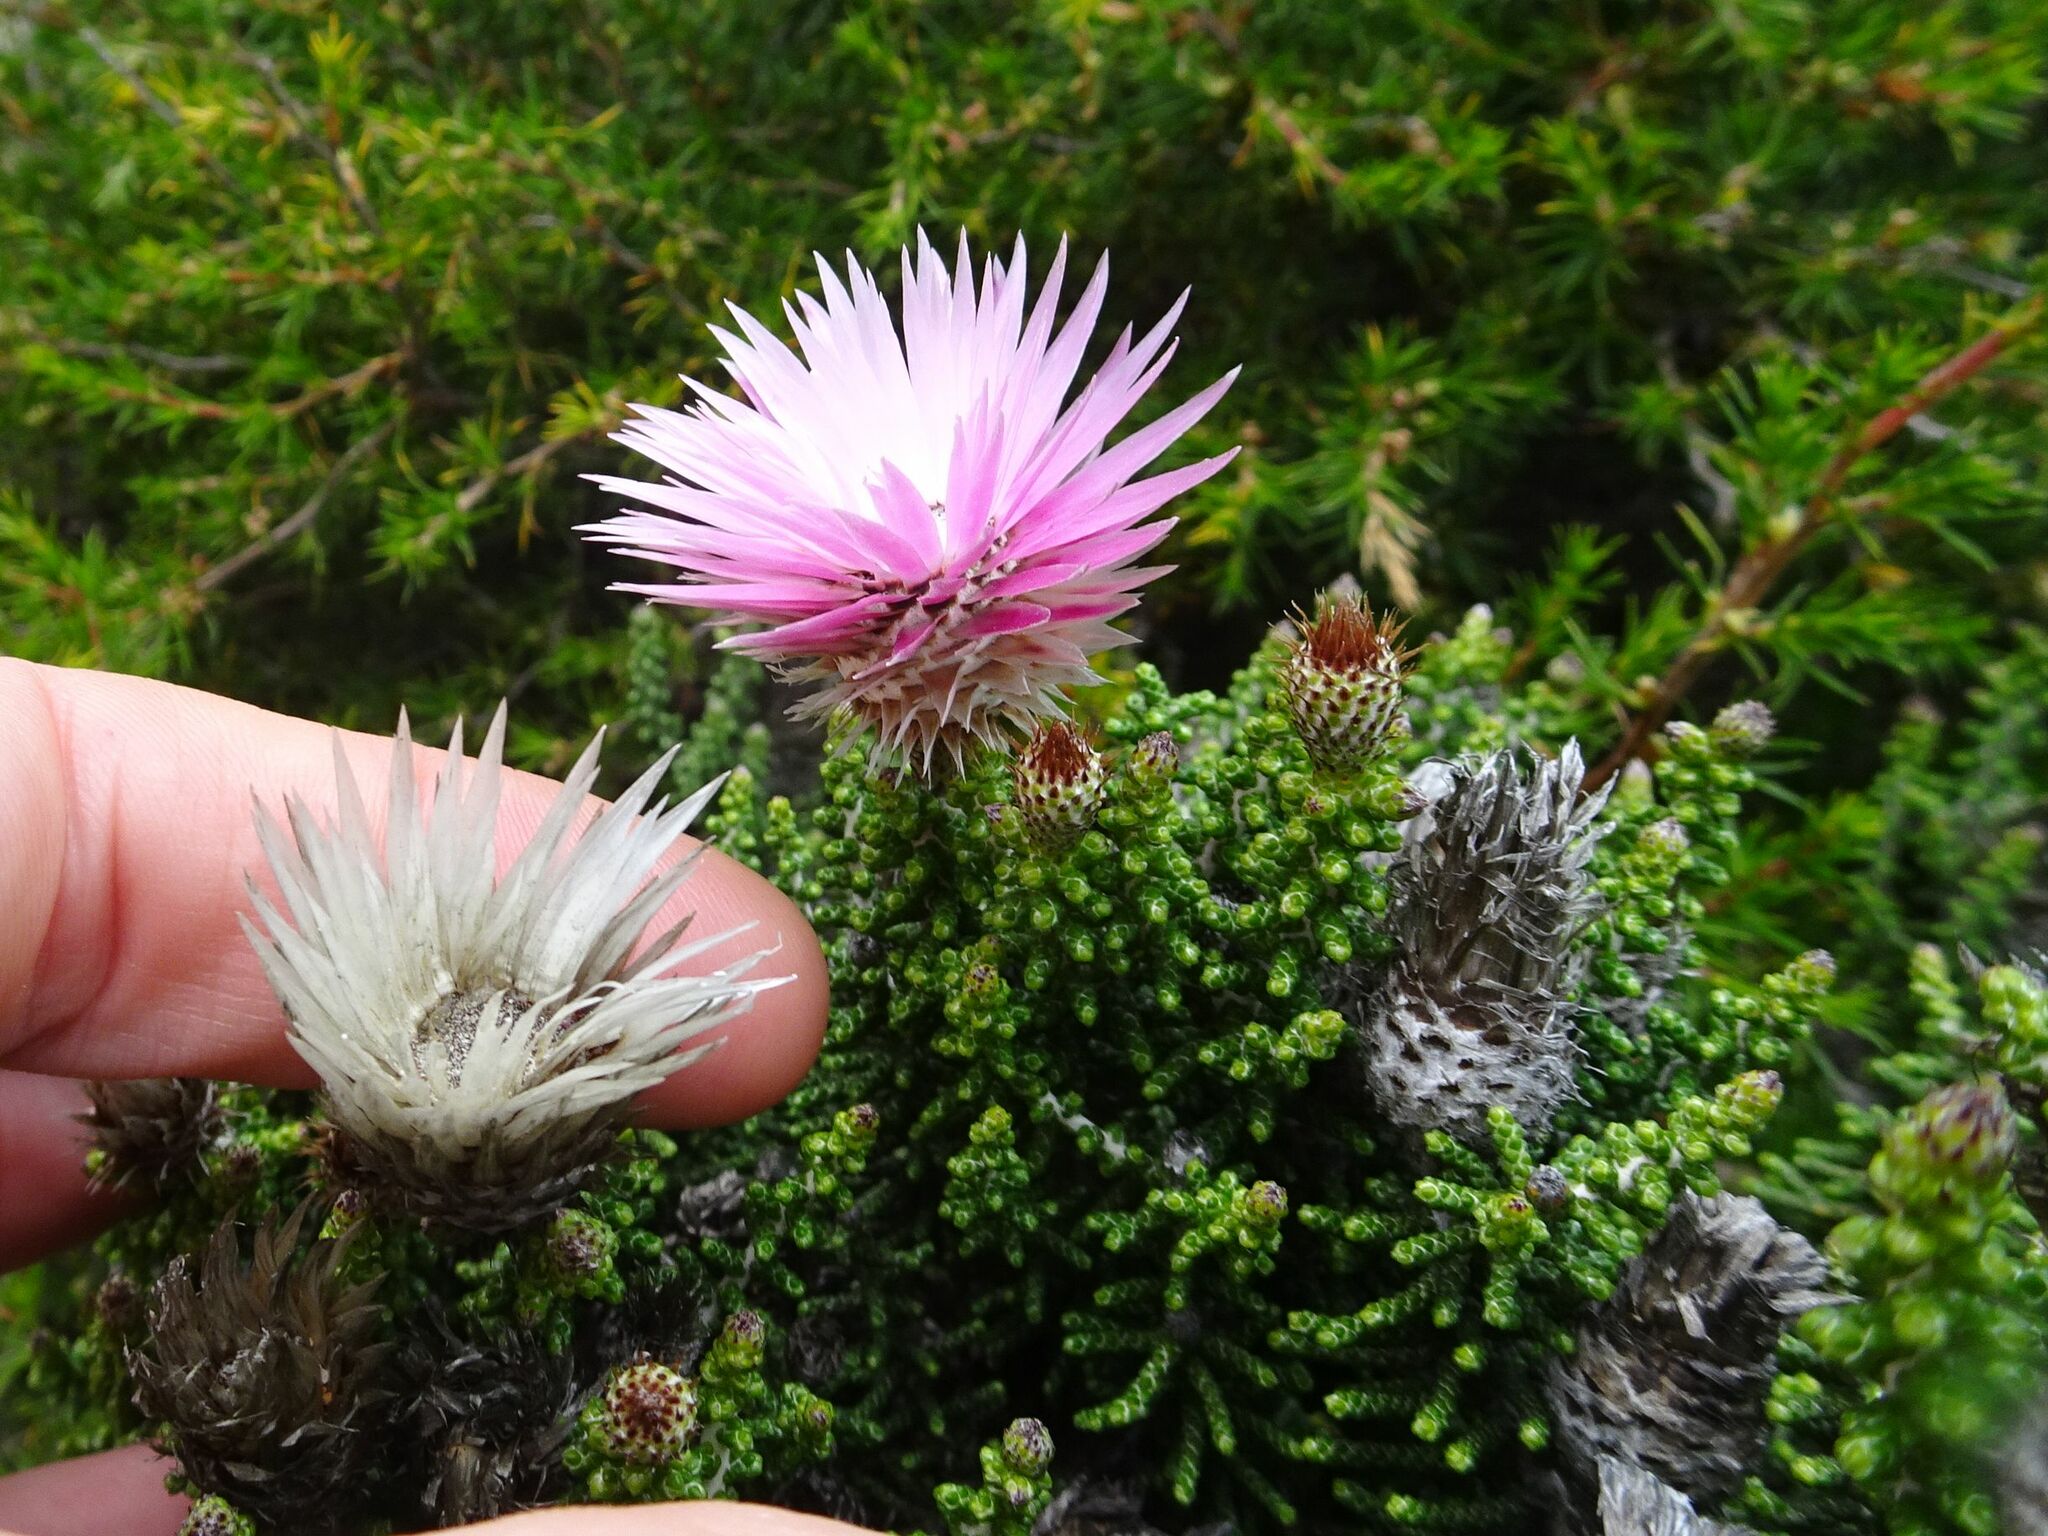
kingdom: Plantae
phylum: Tracheophyta
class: Magnoliopsida
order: Asterales
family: Asteraceae
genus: Phaenocoma
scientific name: Phaenocoma prolifera
